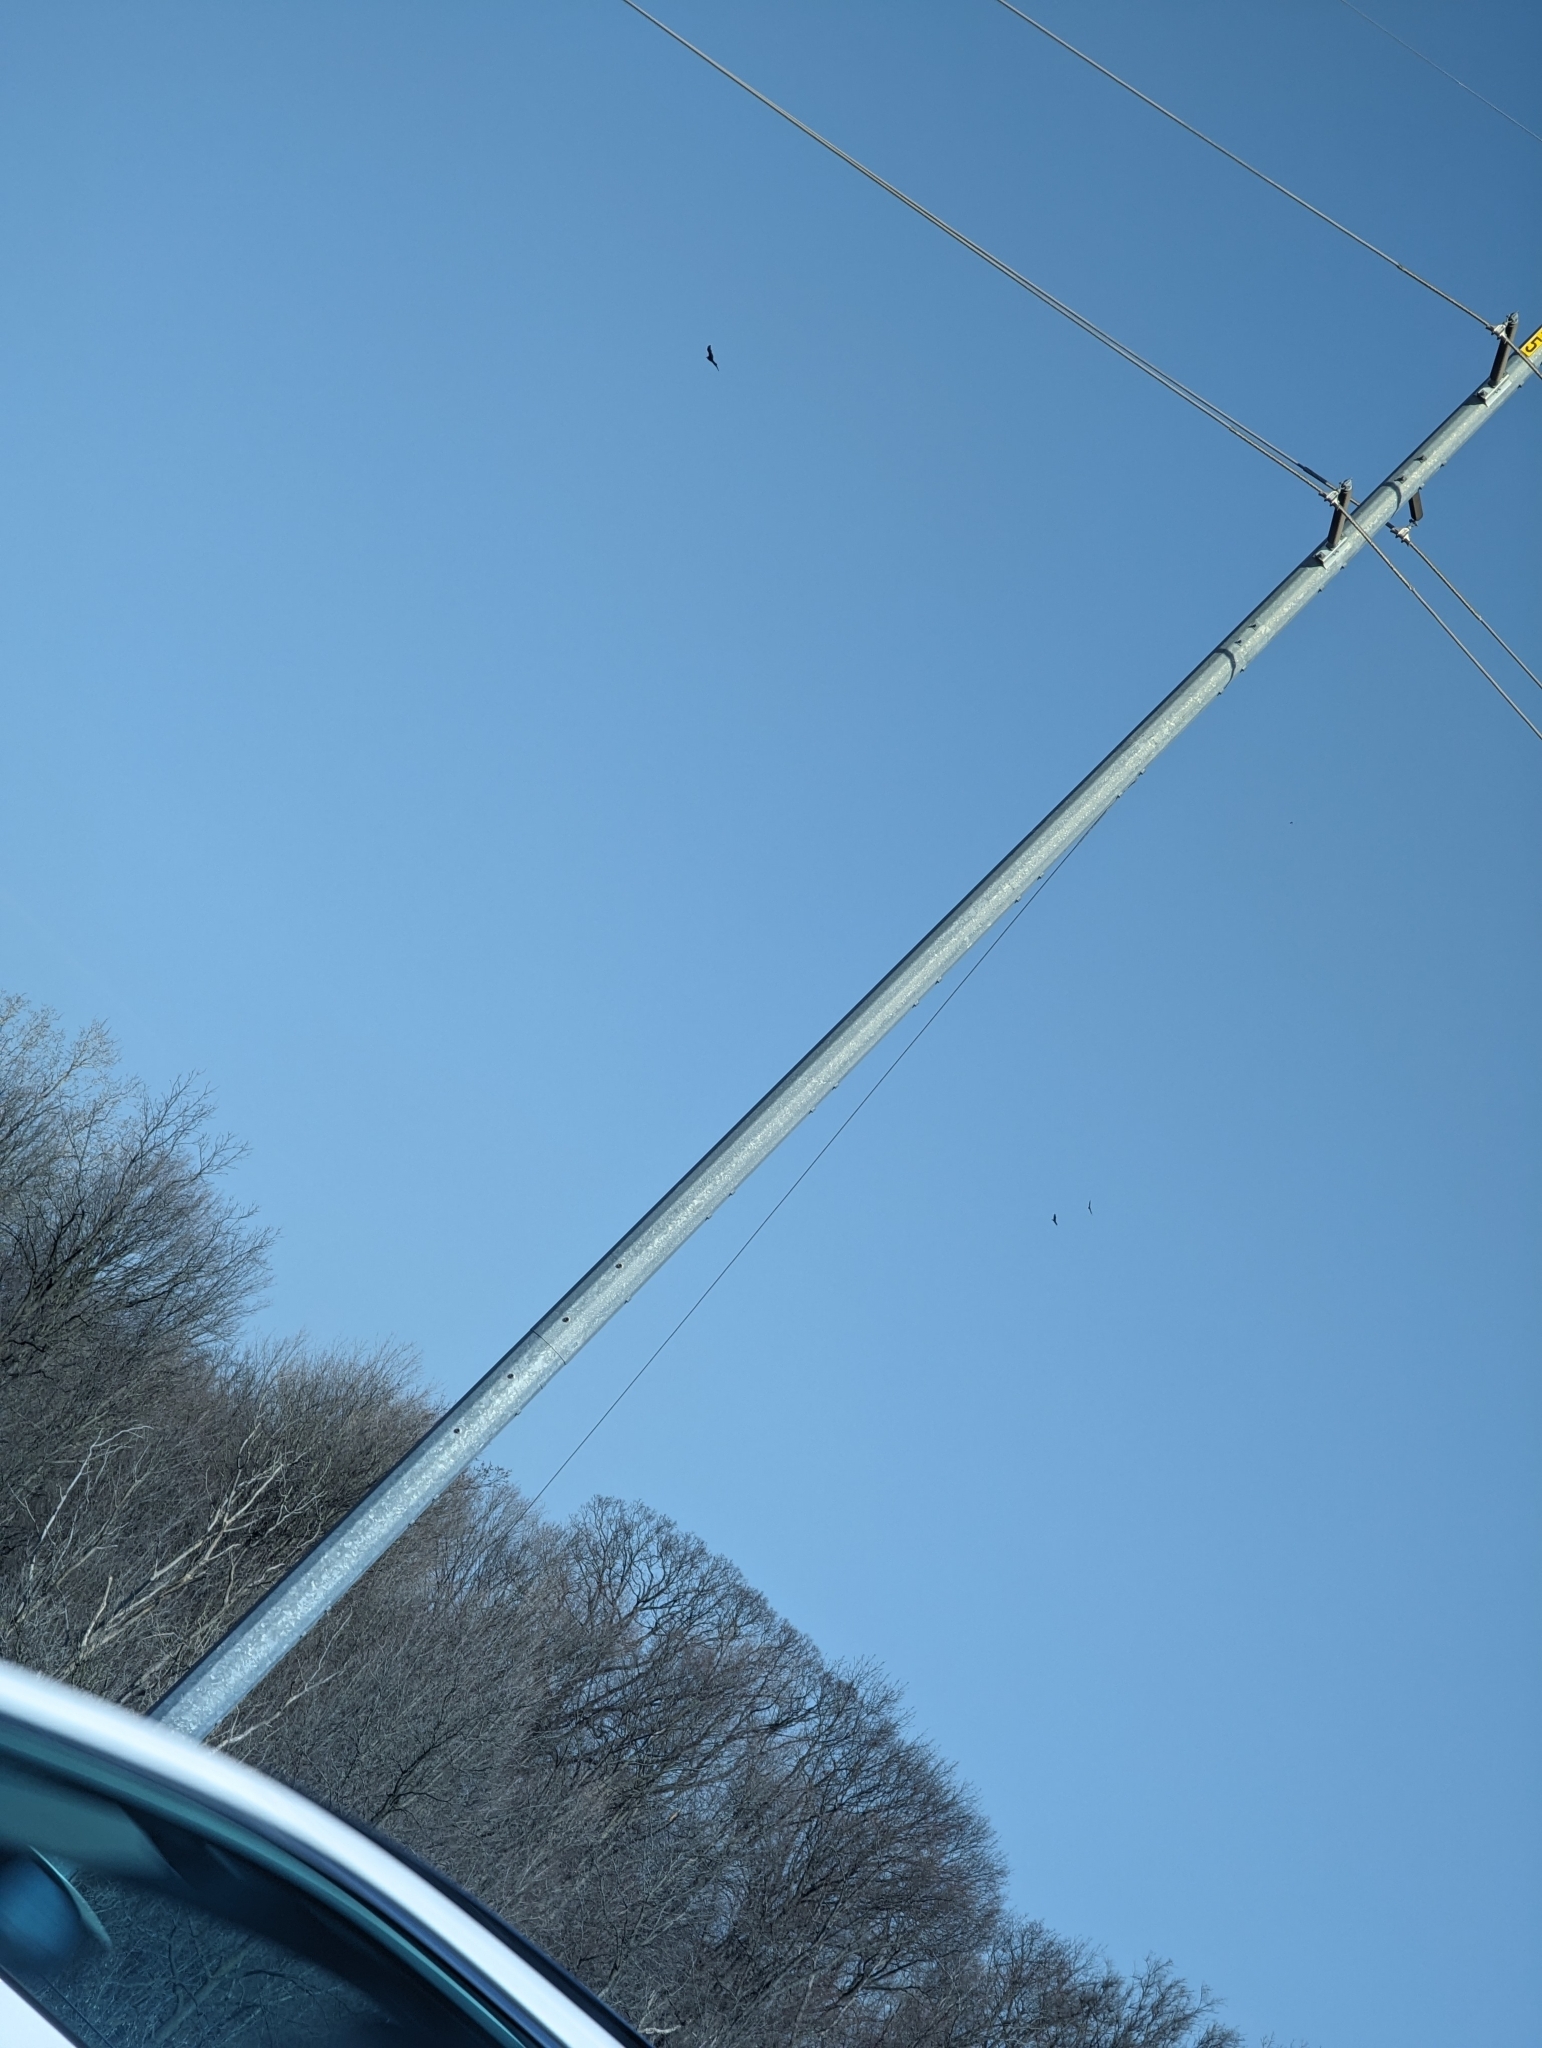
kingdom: Animalia
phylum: Chordata
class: Aves
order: Accipitriformes
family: Cathartidae
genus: Cathartes
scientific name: Cathartes aura
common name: Turkey vulture
